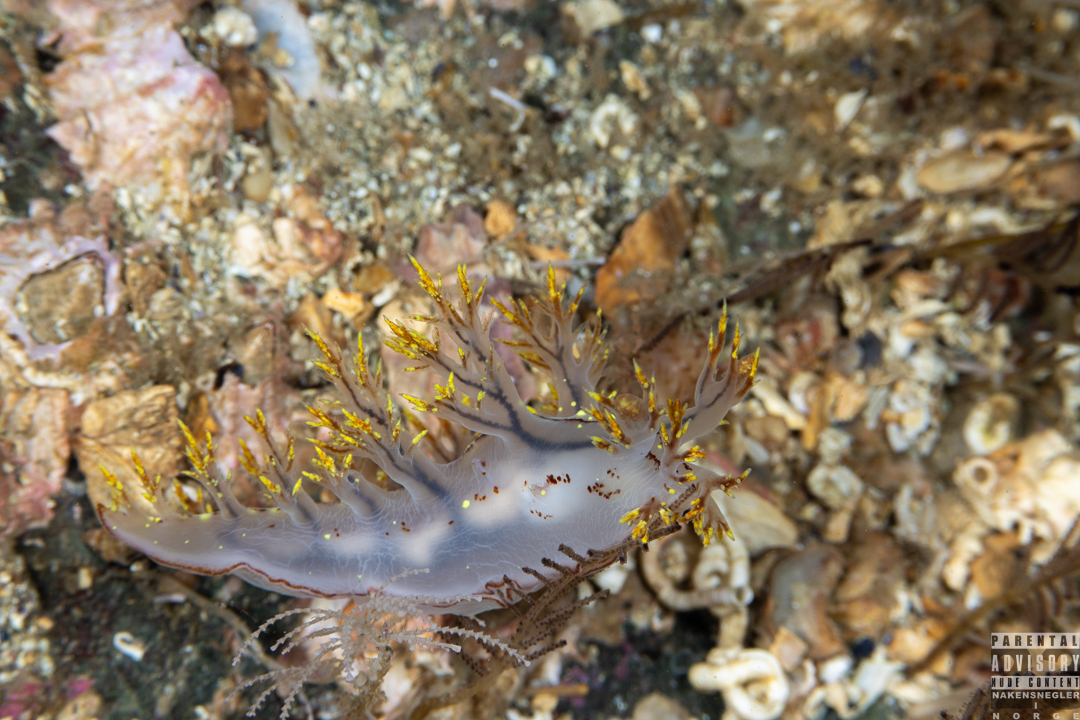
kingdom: Animalia
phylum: Mollusca
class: Gastropoda
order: Nudibranchia
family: Dendronotidae
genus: Dendronotus
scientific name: Dendronotus yrjargul
